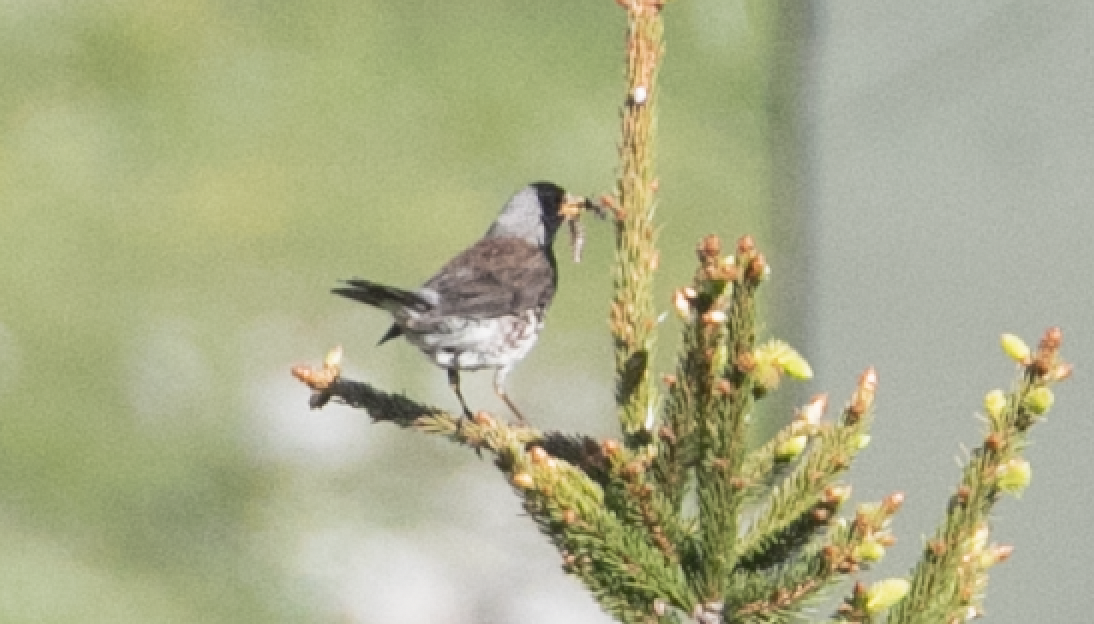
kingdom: Animalia
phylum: Chordata
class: Aves
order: Passeriformes
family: Turdidae
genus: Turdus
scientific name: Turdus pilaris
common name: Fieldfare
